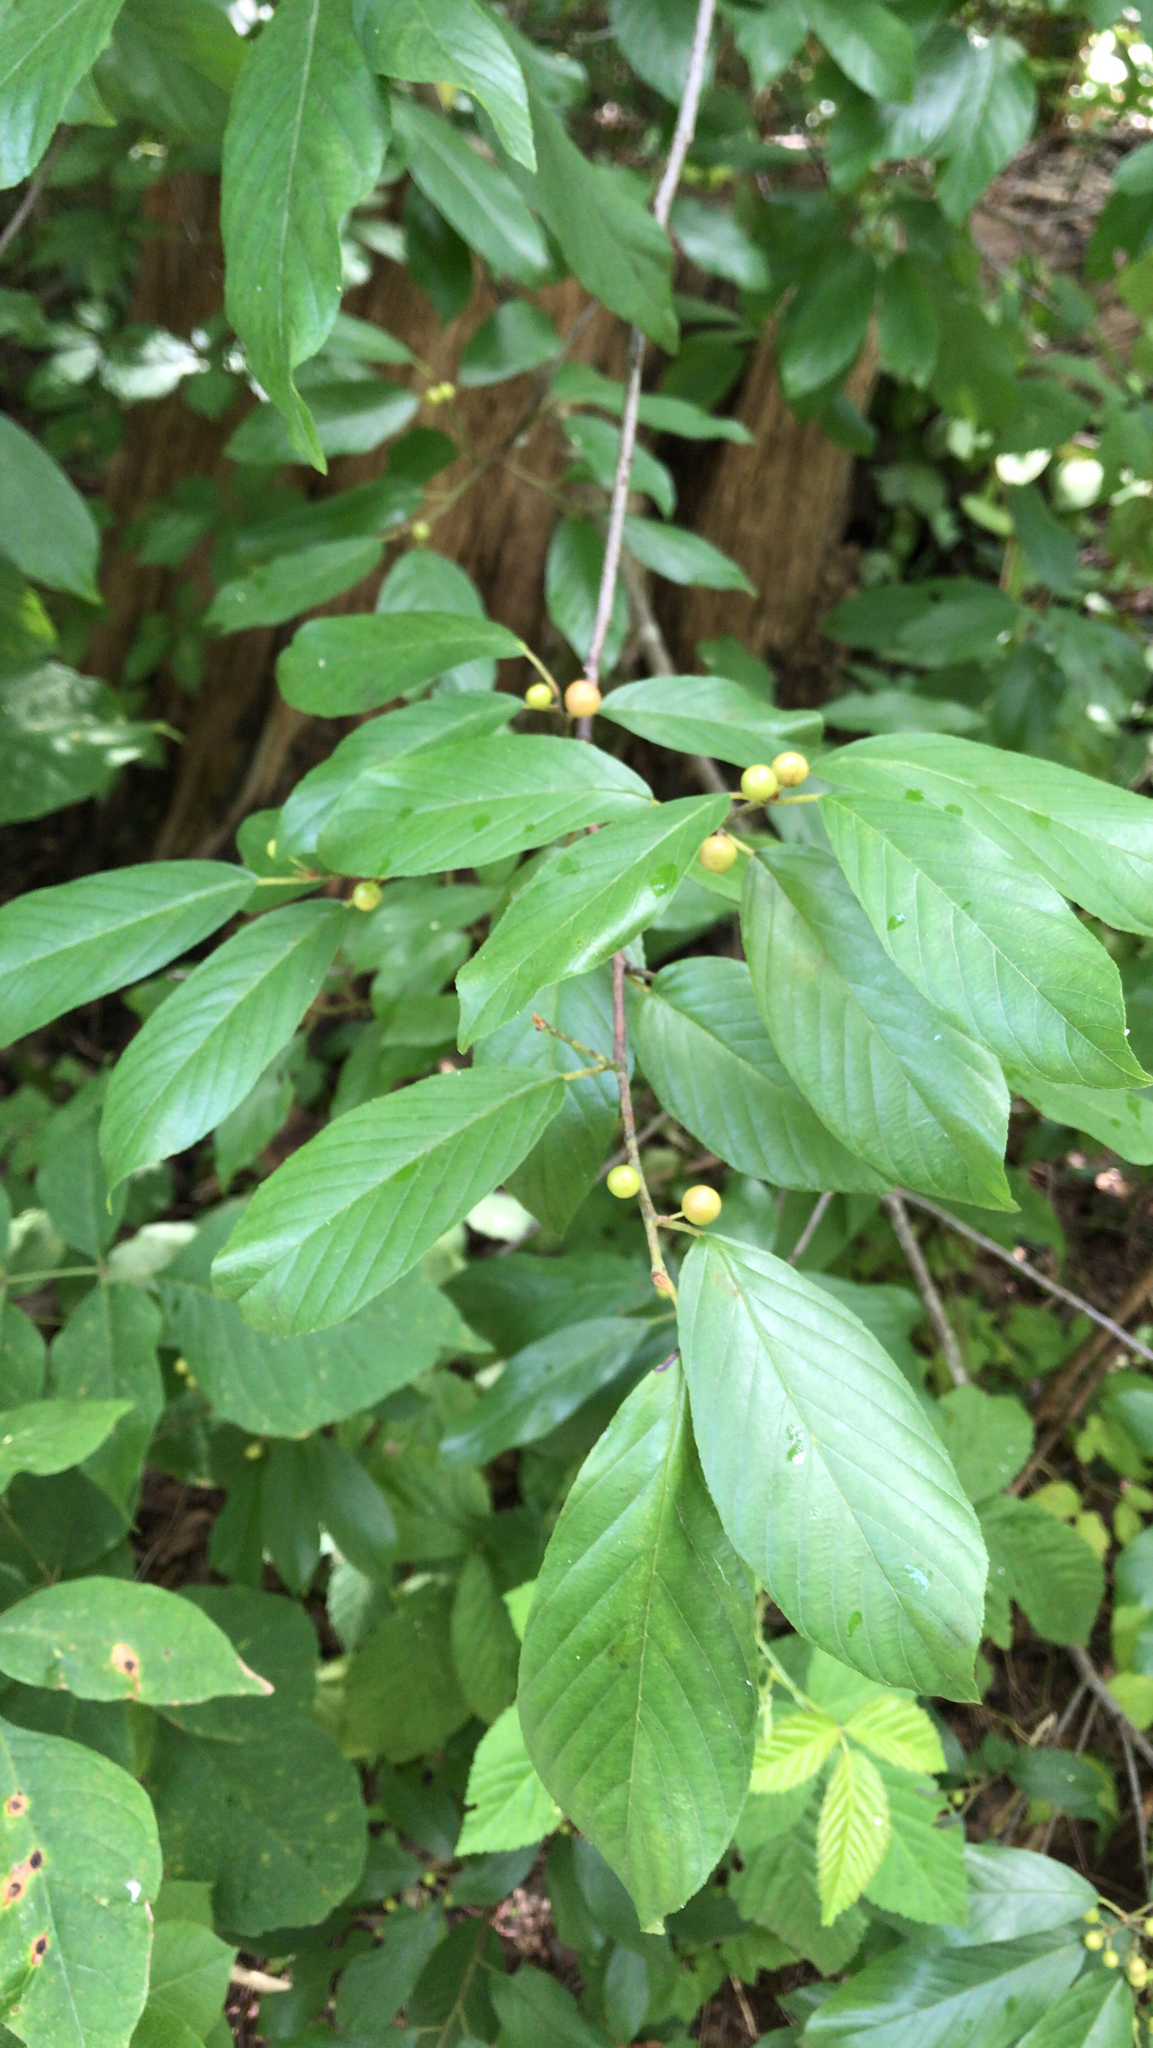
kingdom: Plantae
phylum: Tracheophyta
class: Magnoliopsida
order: Rosales
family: Rhamnaceae
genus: Frangula
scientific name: Frangula caroliniana
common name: Carolina buckthorn
